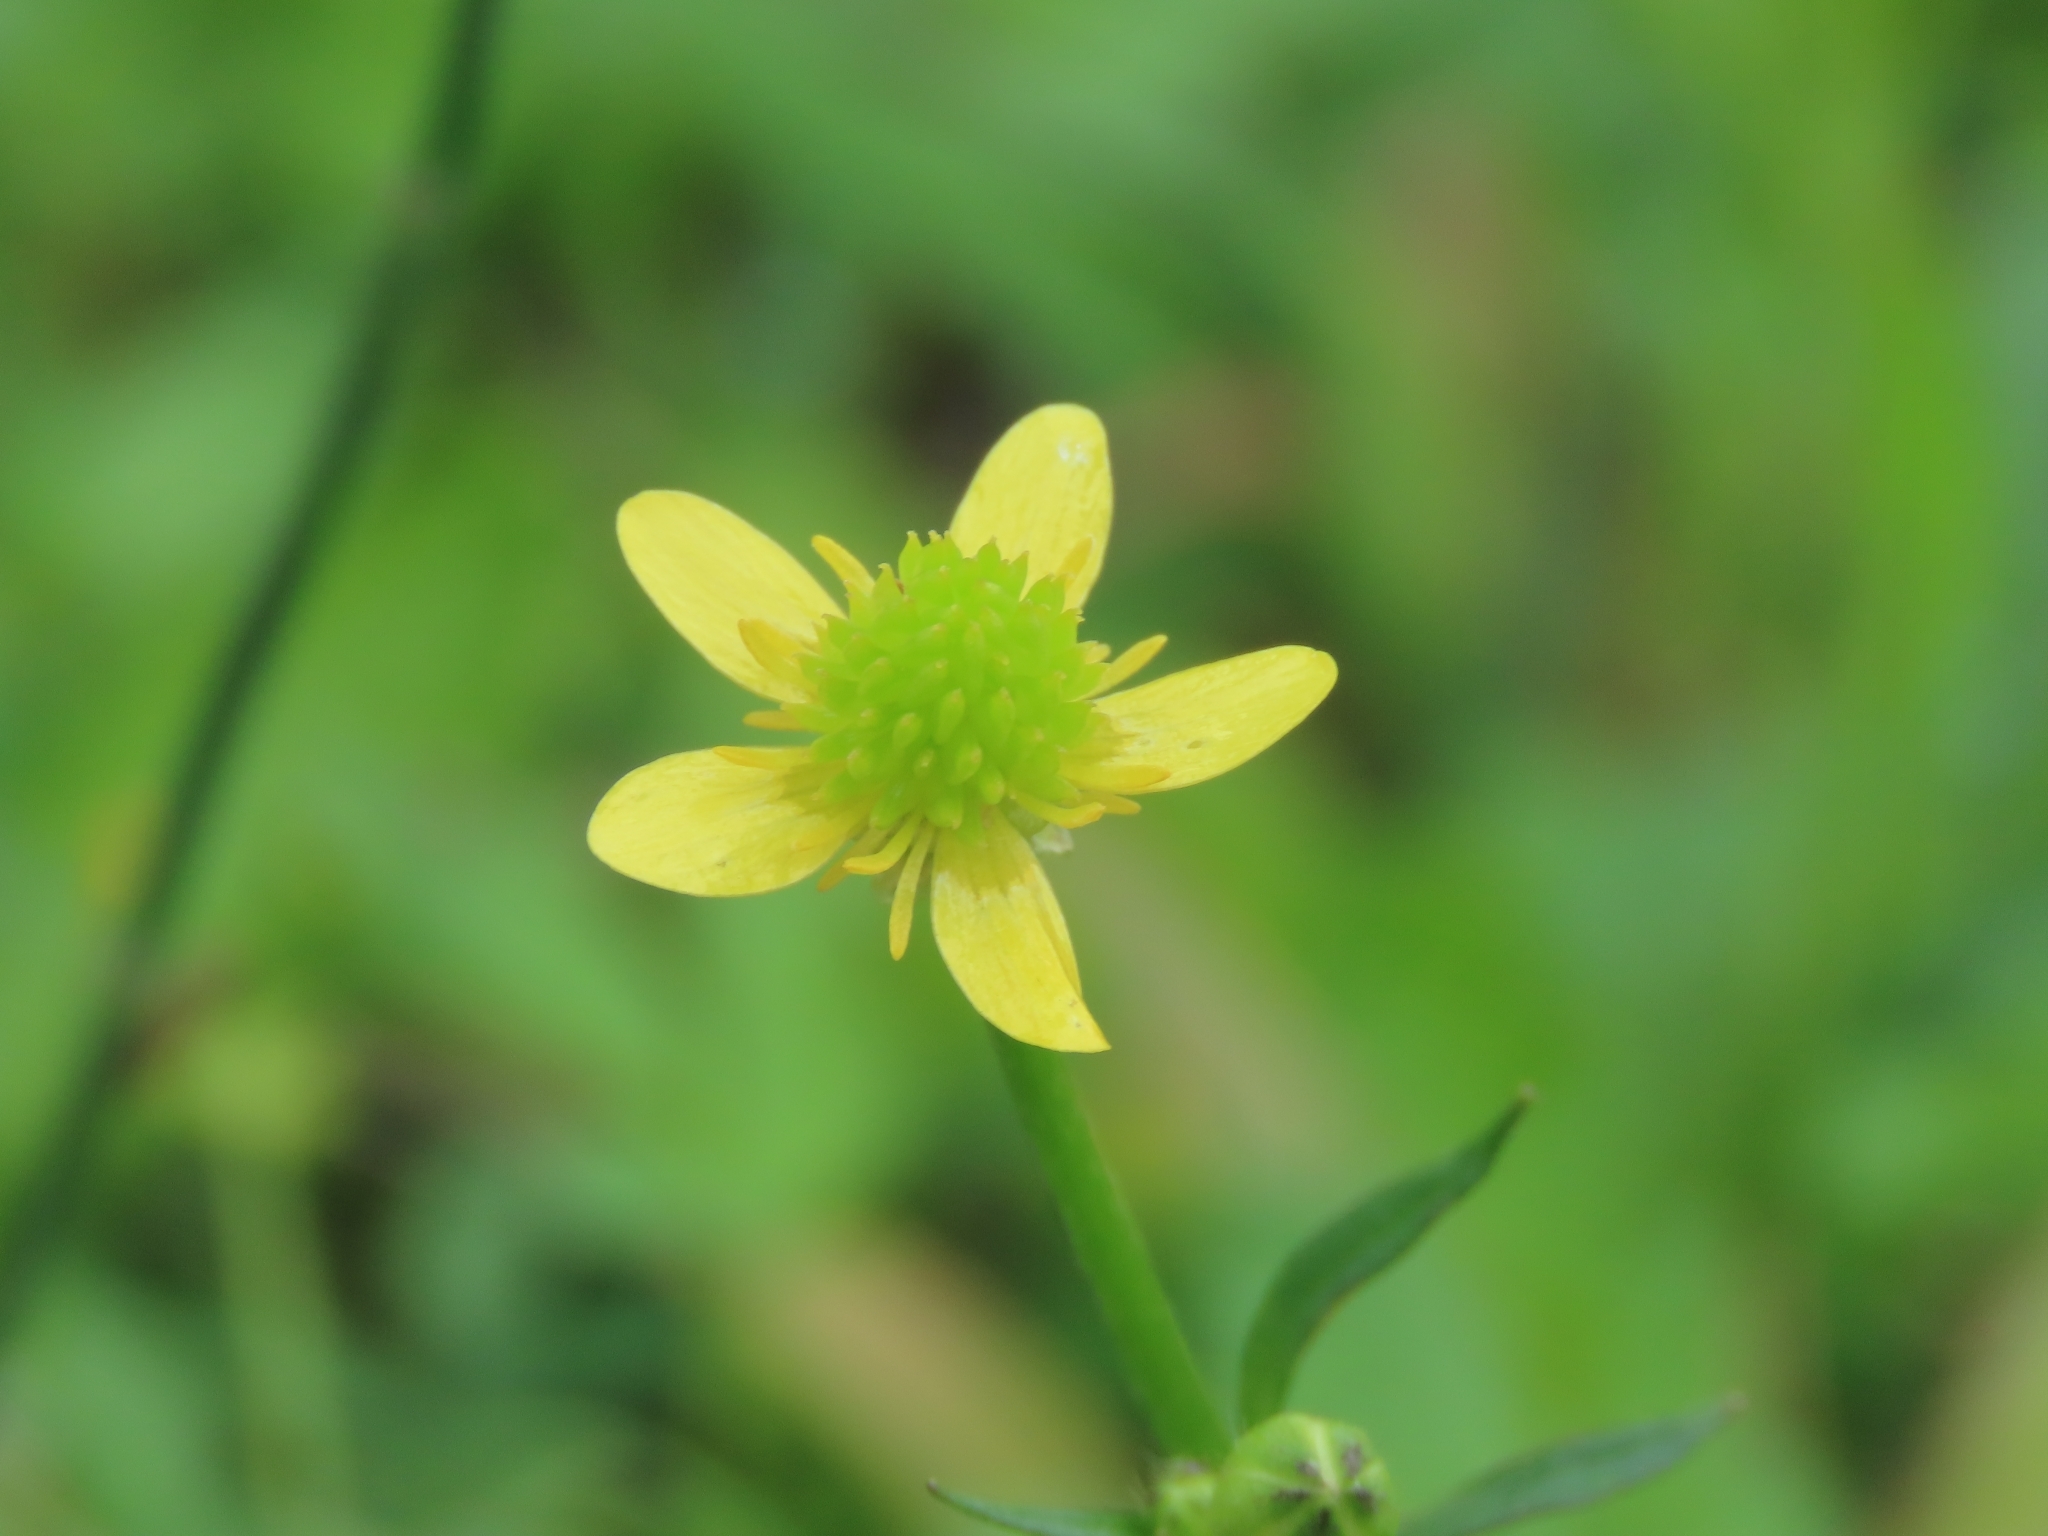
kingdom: Plantae
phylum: Tracheophyta
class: Magnoliopsida
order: Ranunculales
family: Ranunculaceae
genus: Ranunculus
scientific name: Ranunculus cantoniensis
